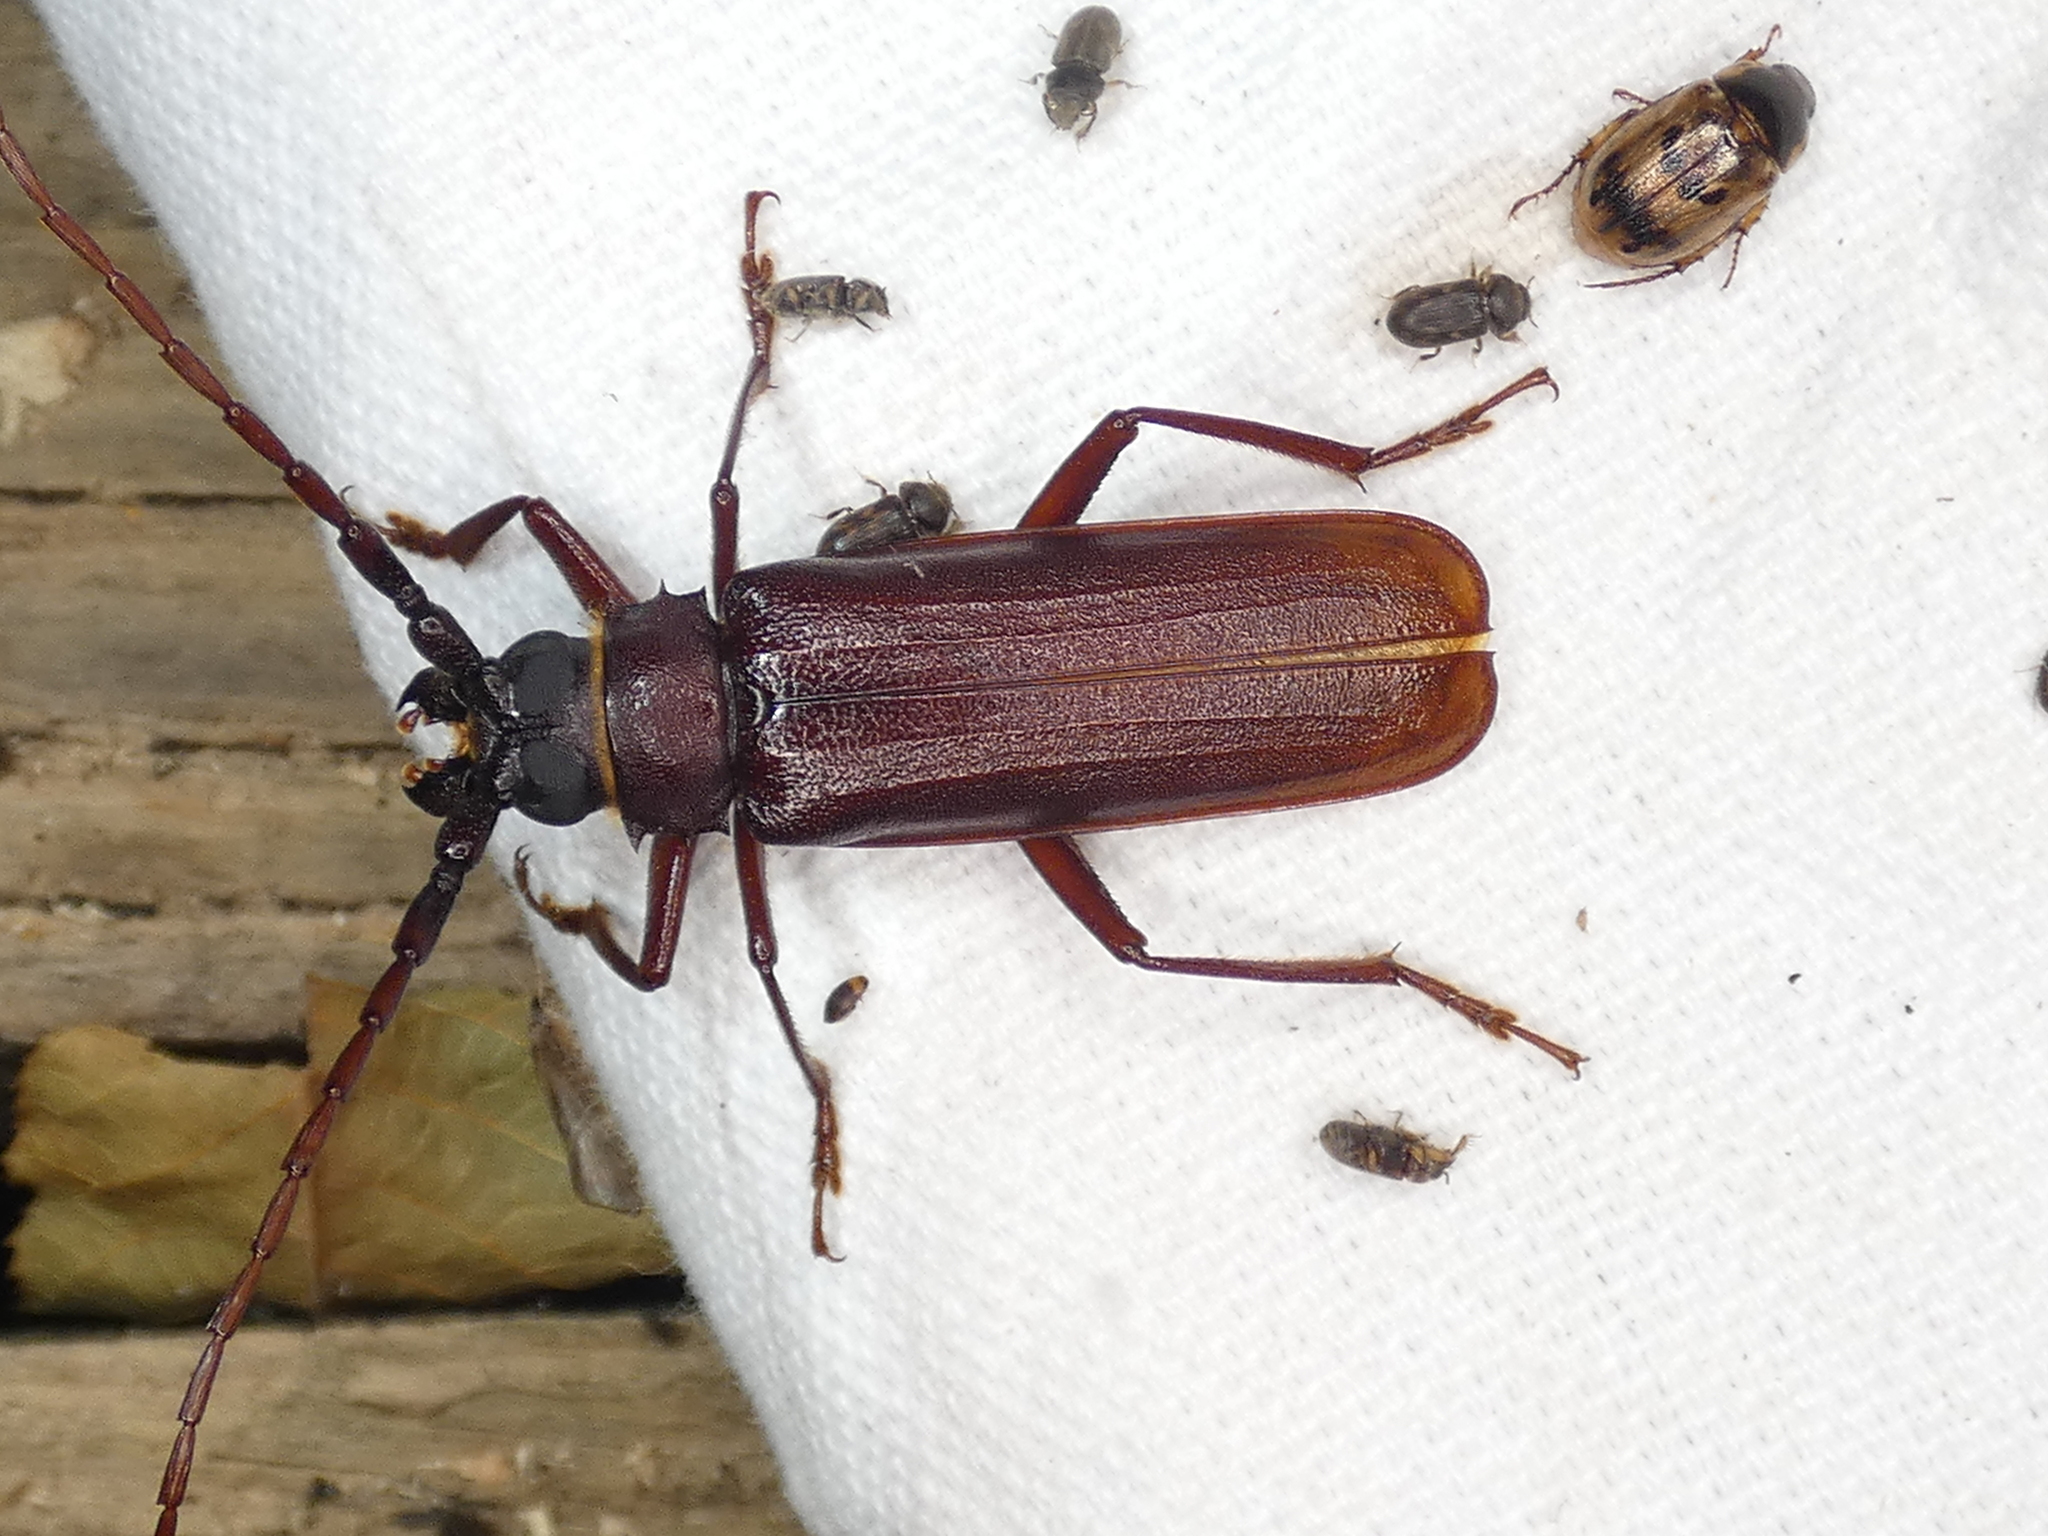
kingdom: Animalia
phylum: Arthropoda
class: Insecta
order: Coleoptera
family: Cerambycidae
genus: Orthosoma
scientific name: Orthosoma brunneum
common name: Brown prionid beetle
